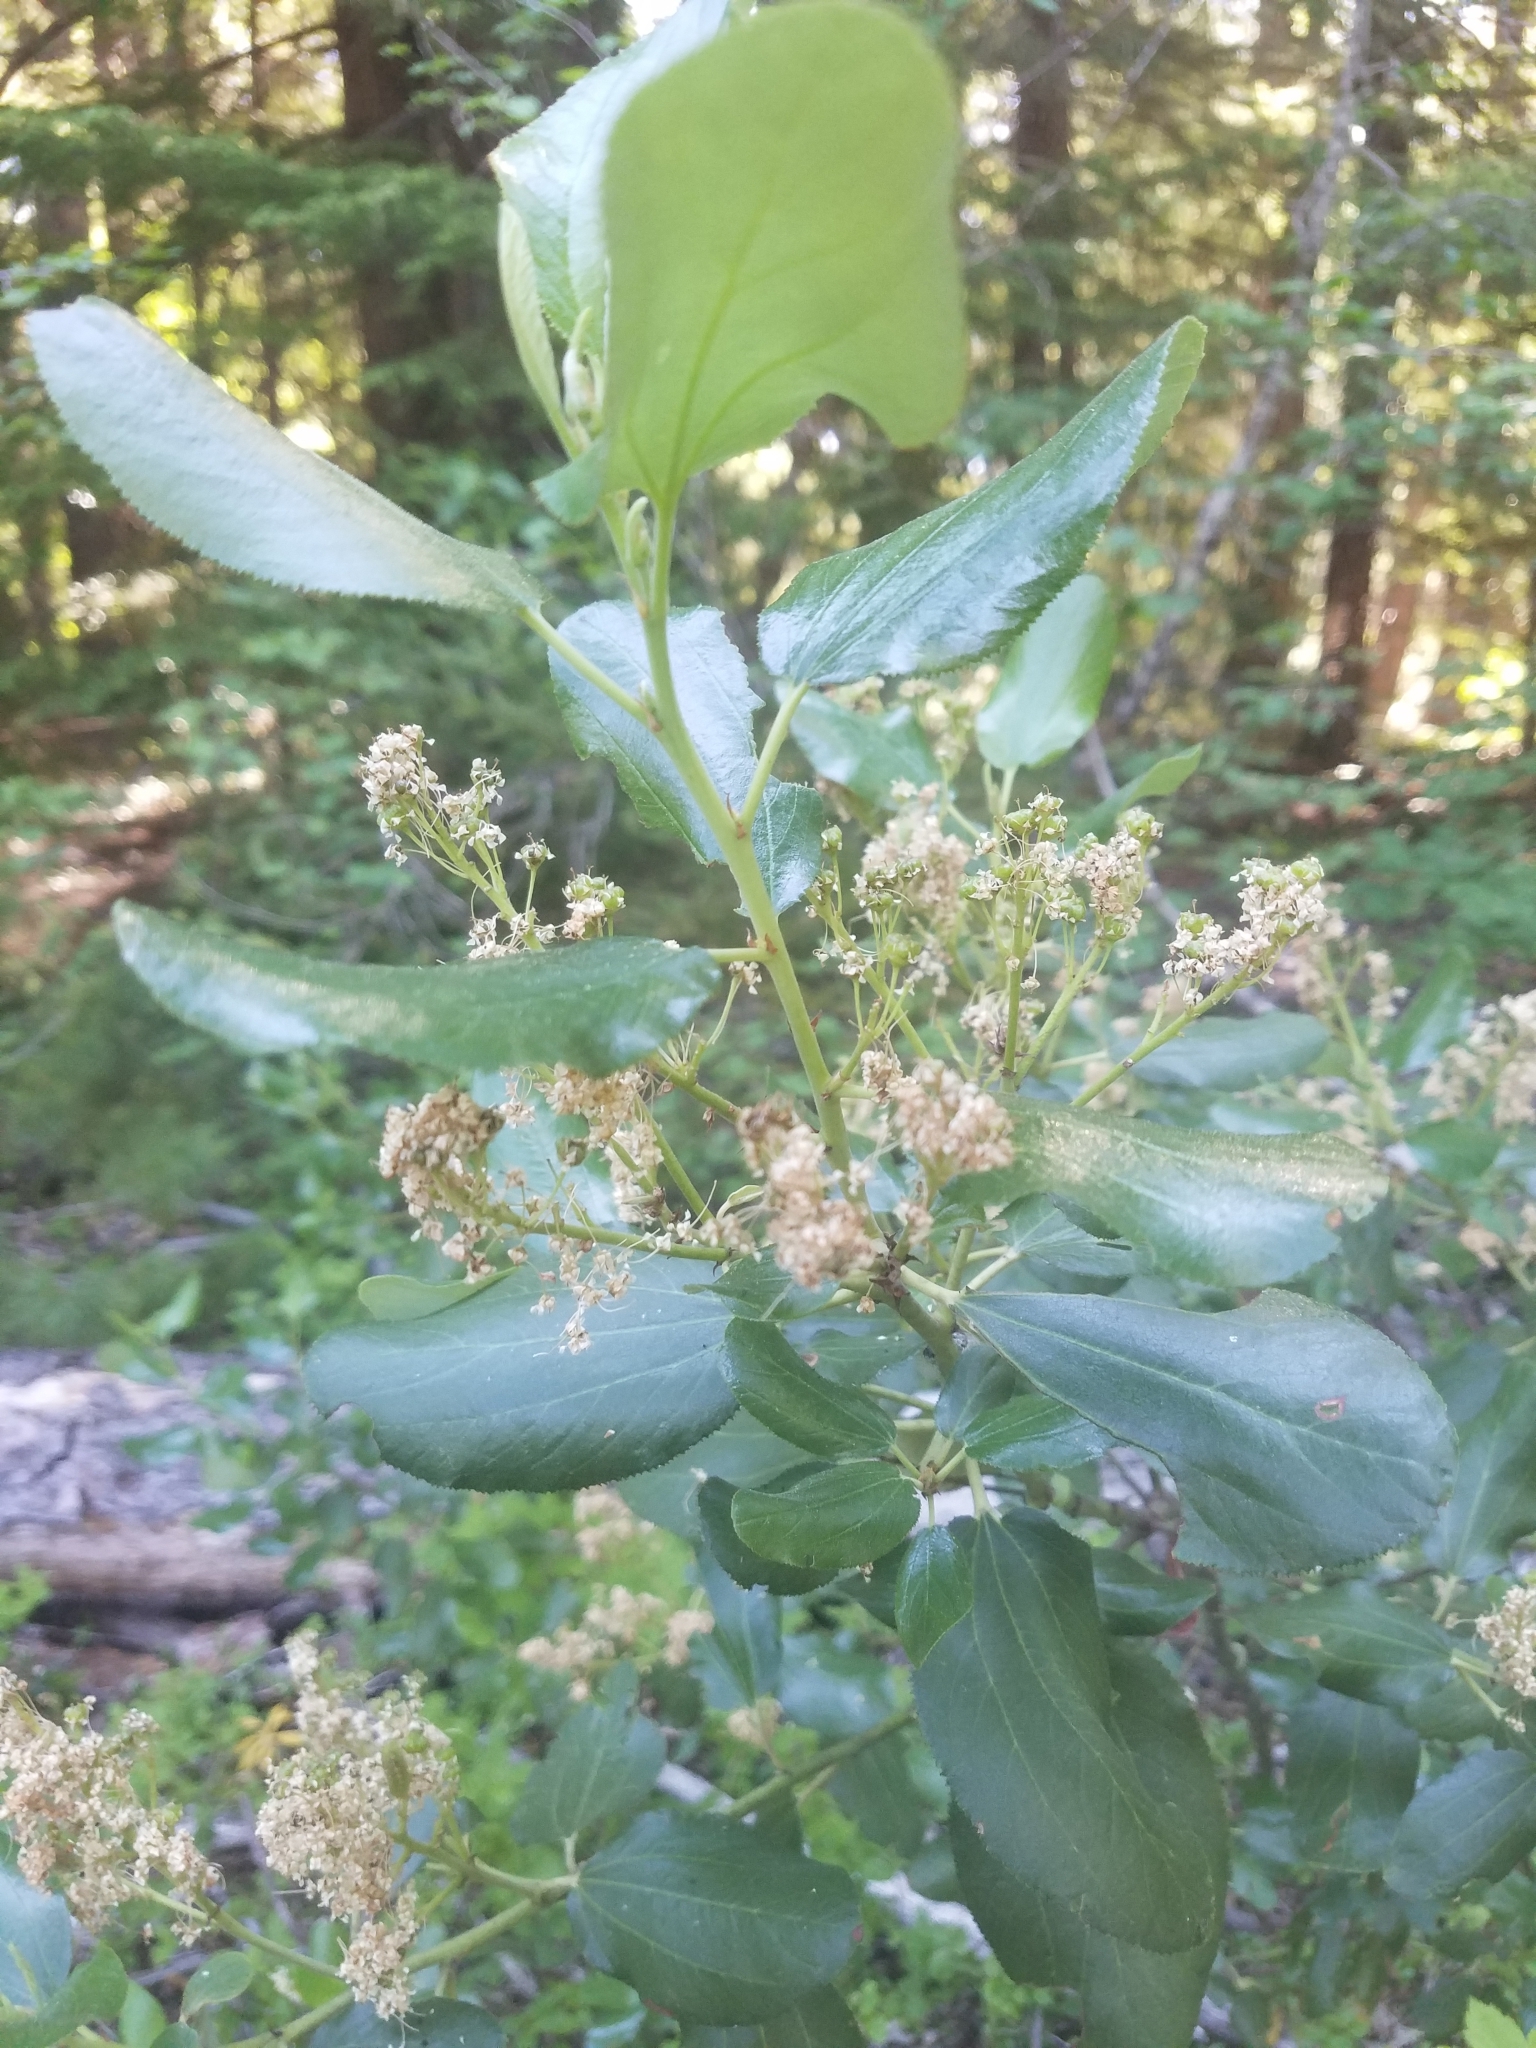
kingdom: Plantae
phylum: Tracheophyta
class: Magnoliopsida
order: Rosales
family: Rhamnaceae
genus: Ceanothus
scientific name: Ceanothus velutinus
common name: Snowbrush
